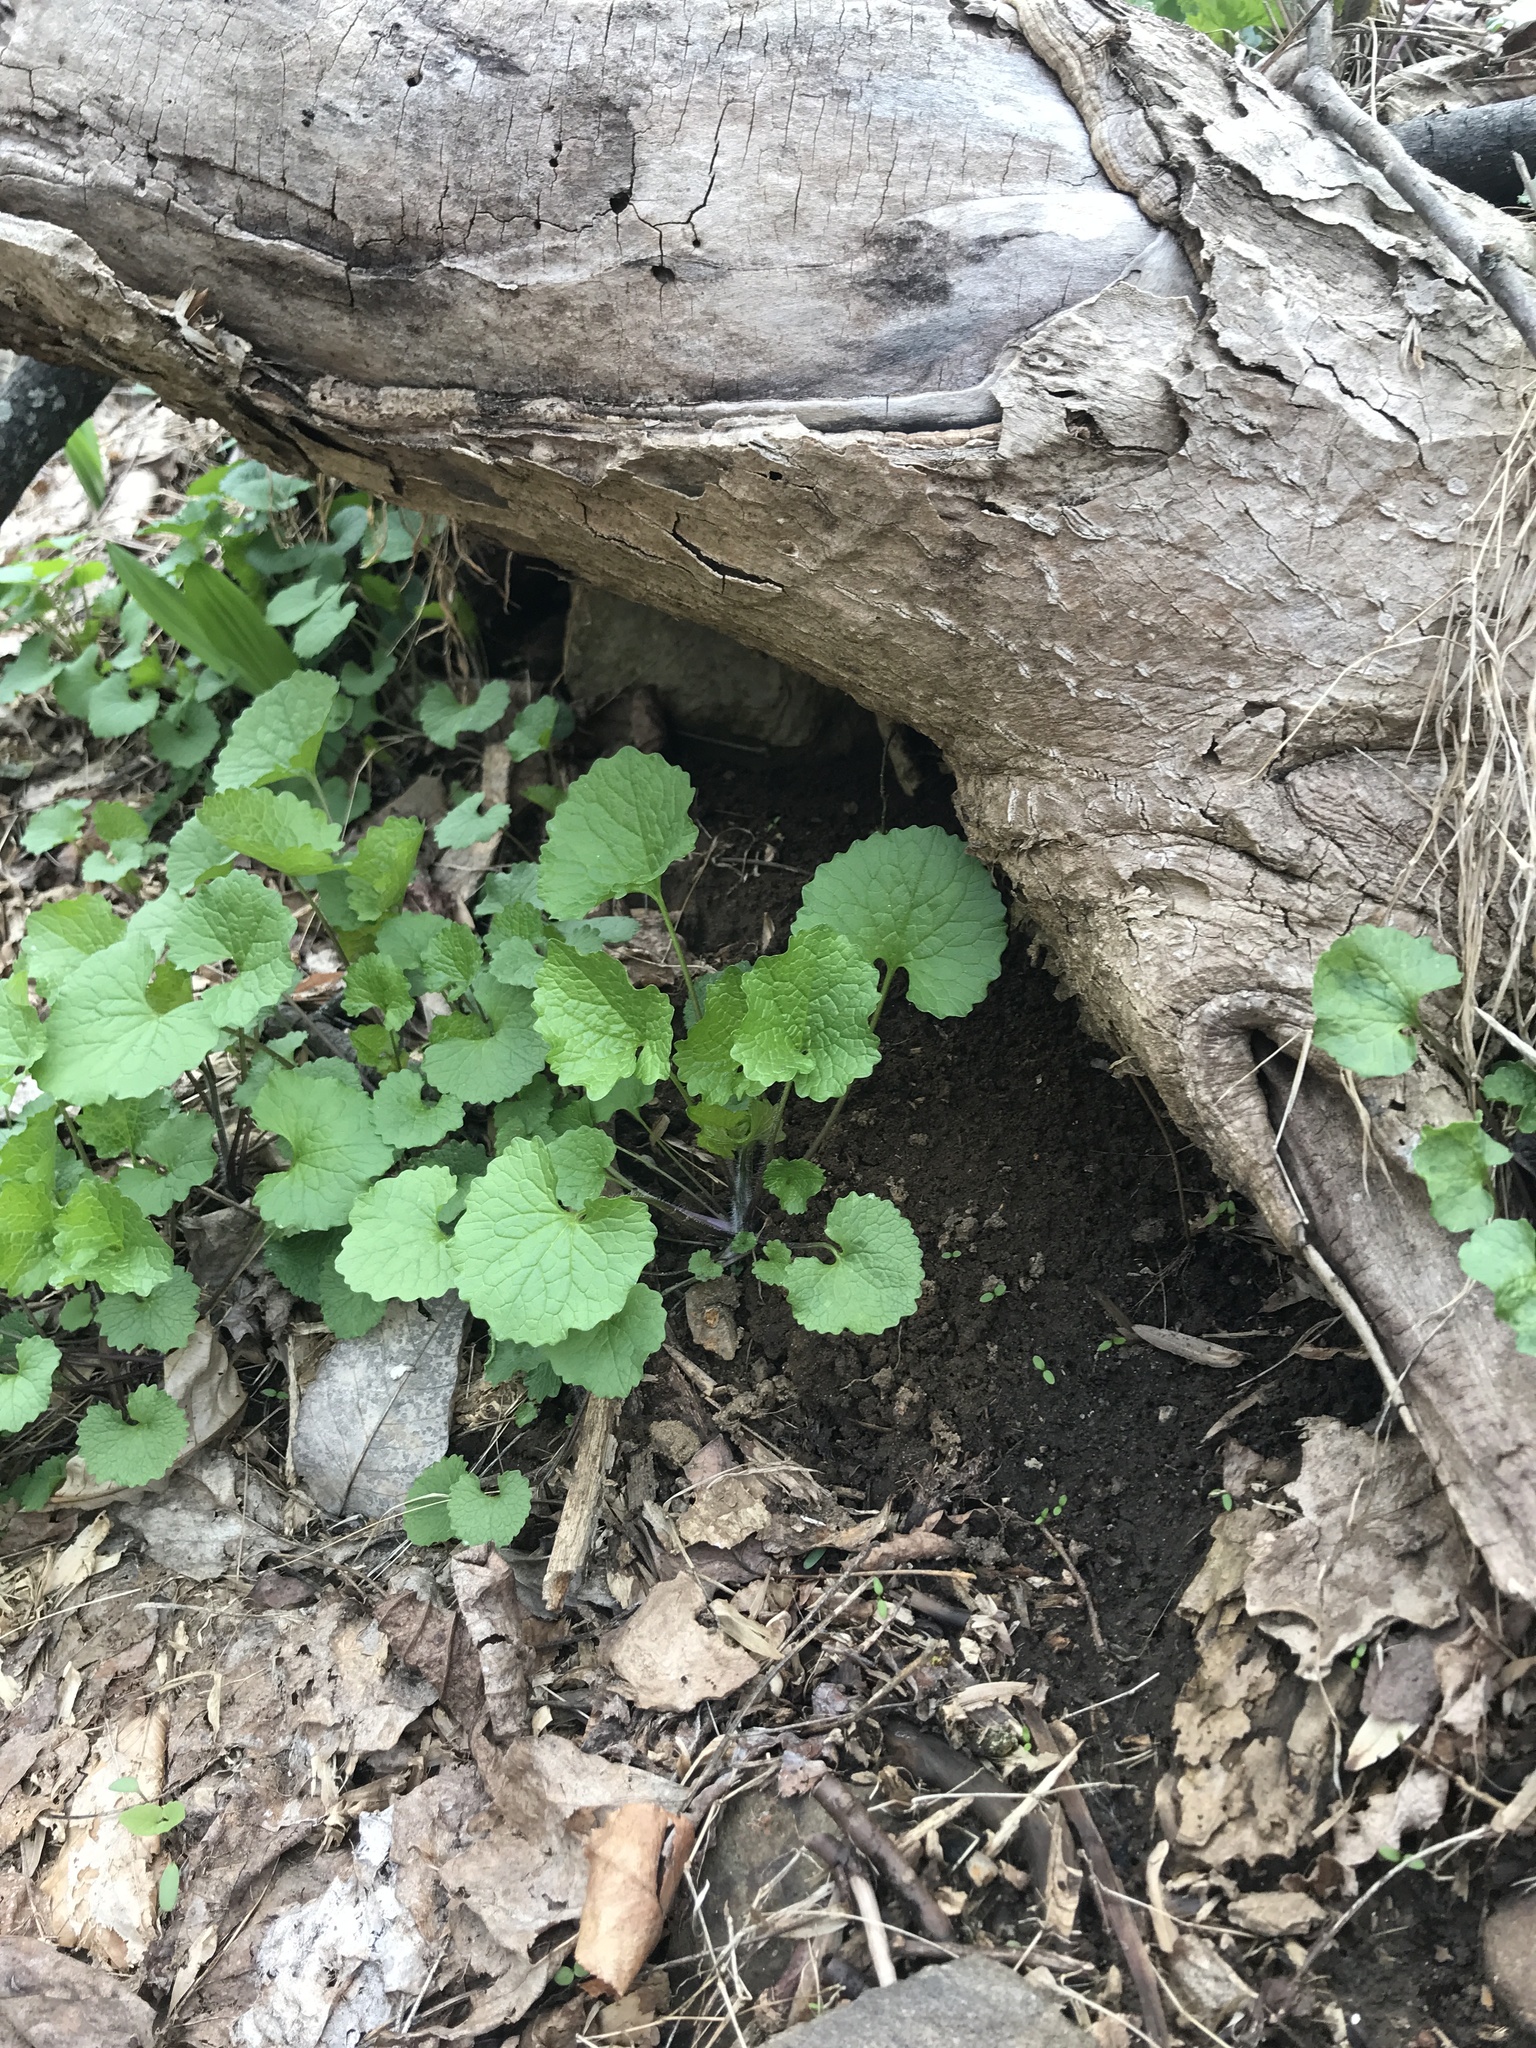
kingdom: Plantae
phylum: Tracheophyta
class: Magnoliopsida
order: Brassicales
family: Brassicaceae
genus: Alliaria
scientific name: Alliaria petiolata
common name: Garlic mustard
